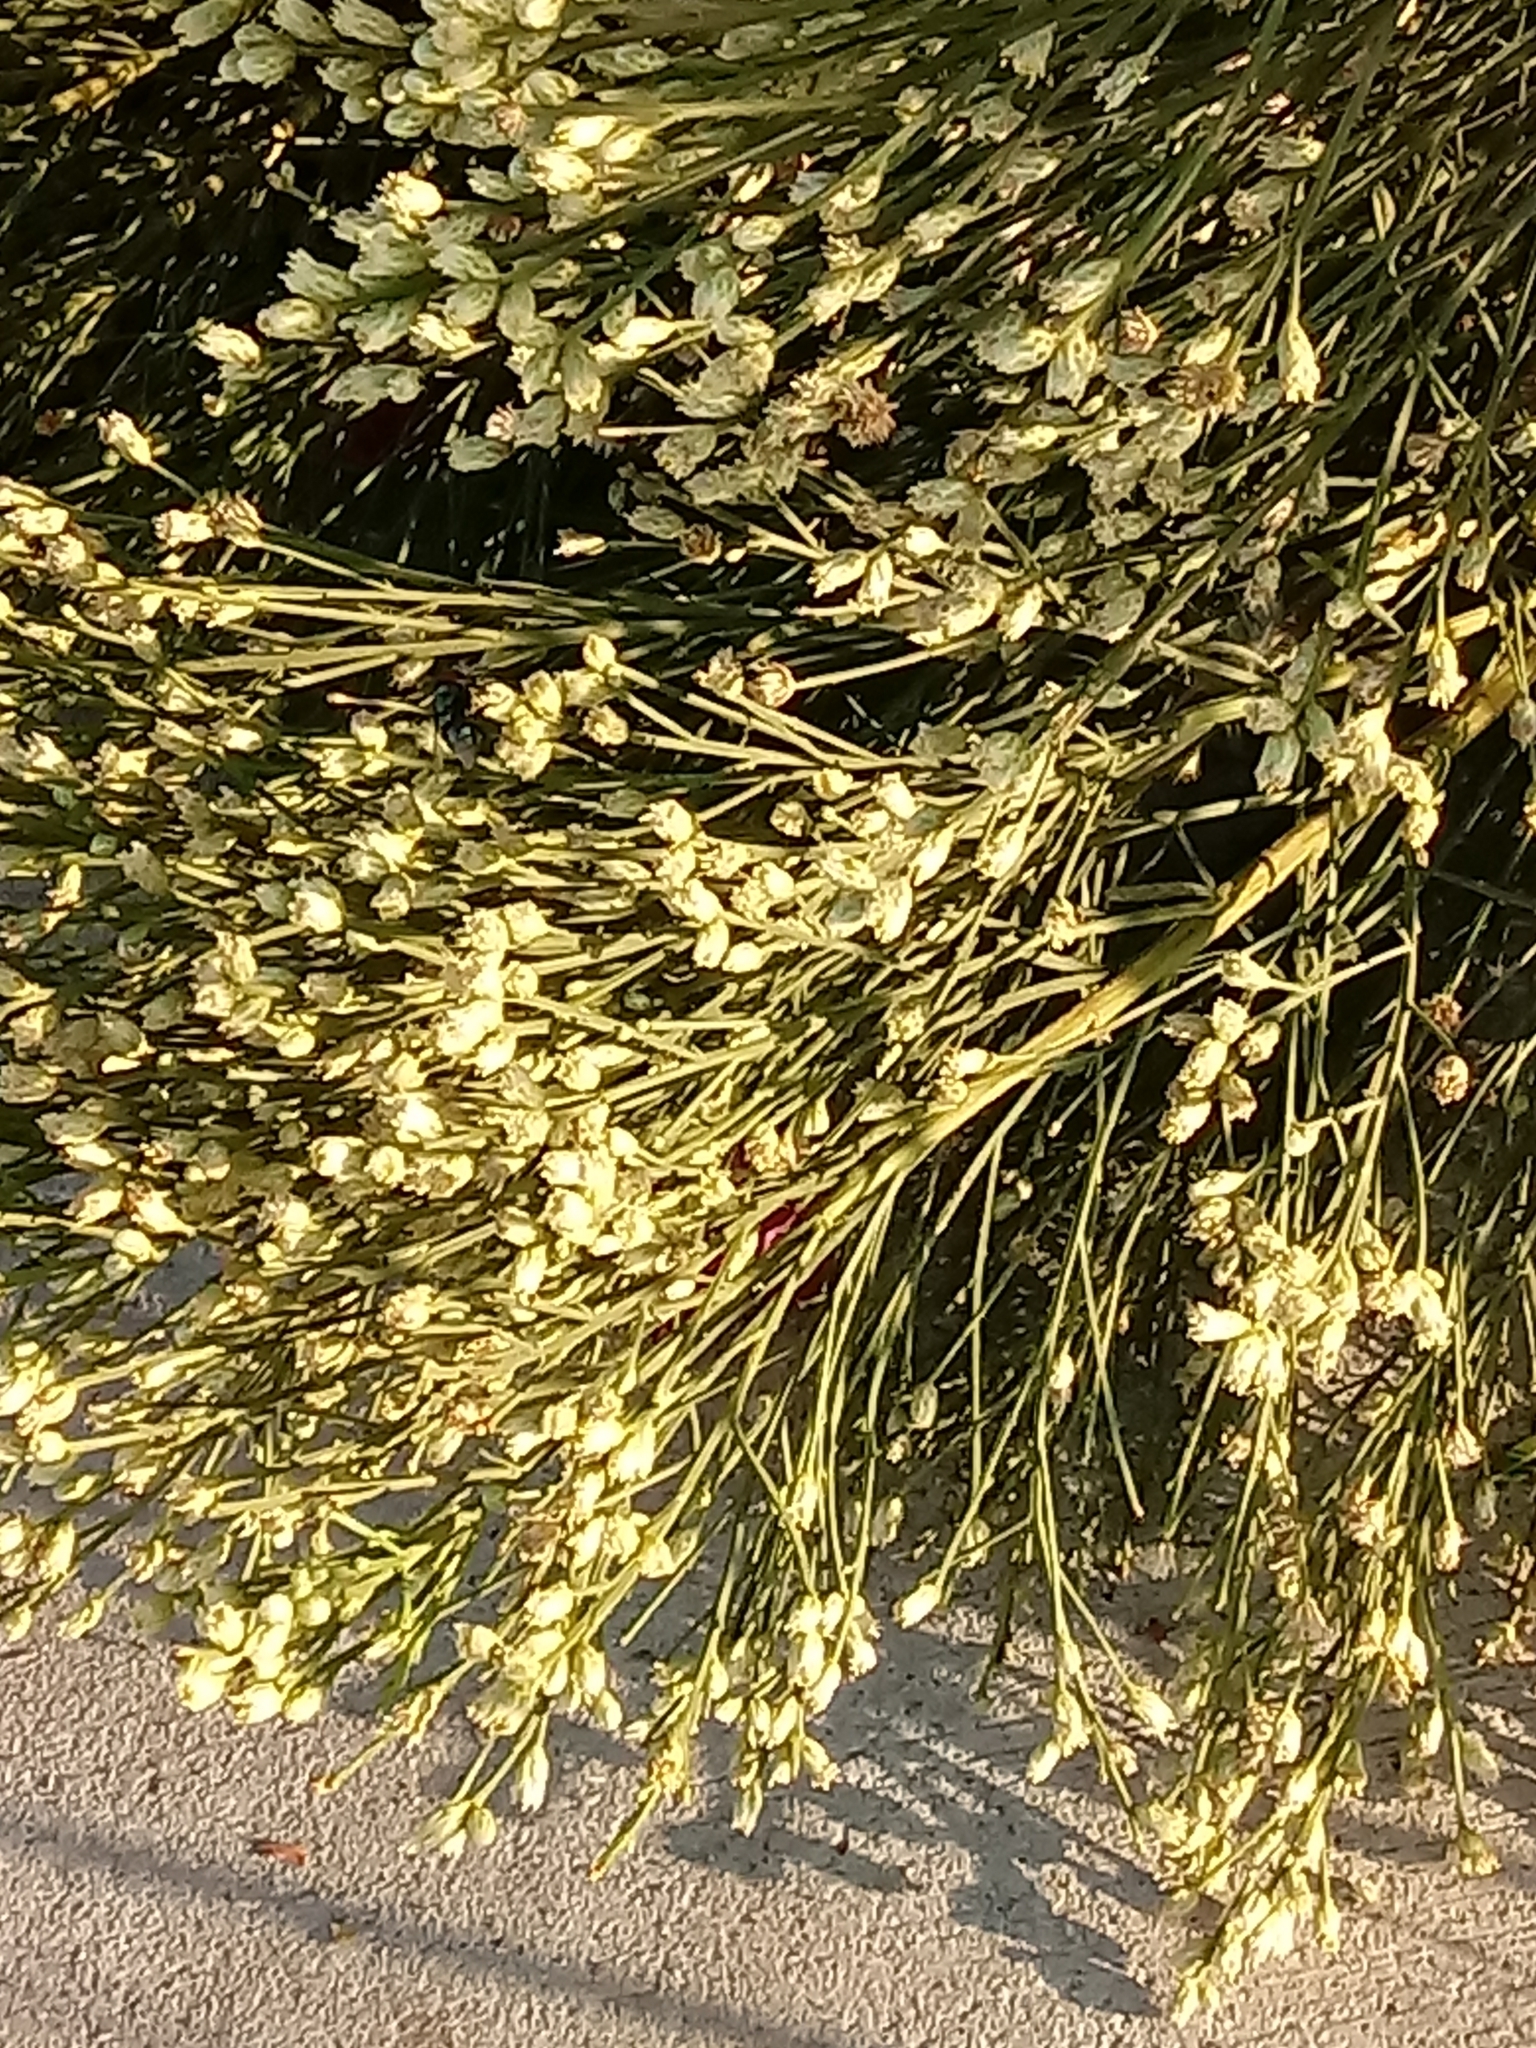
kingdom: Plantae
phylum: Tracheophyta
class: Magnoliopsida
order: Asterales
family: Asteraceae
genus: Baccharis
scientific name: Baccharis sarothroides
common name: Desert-broom
